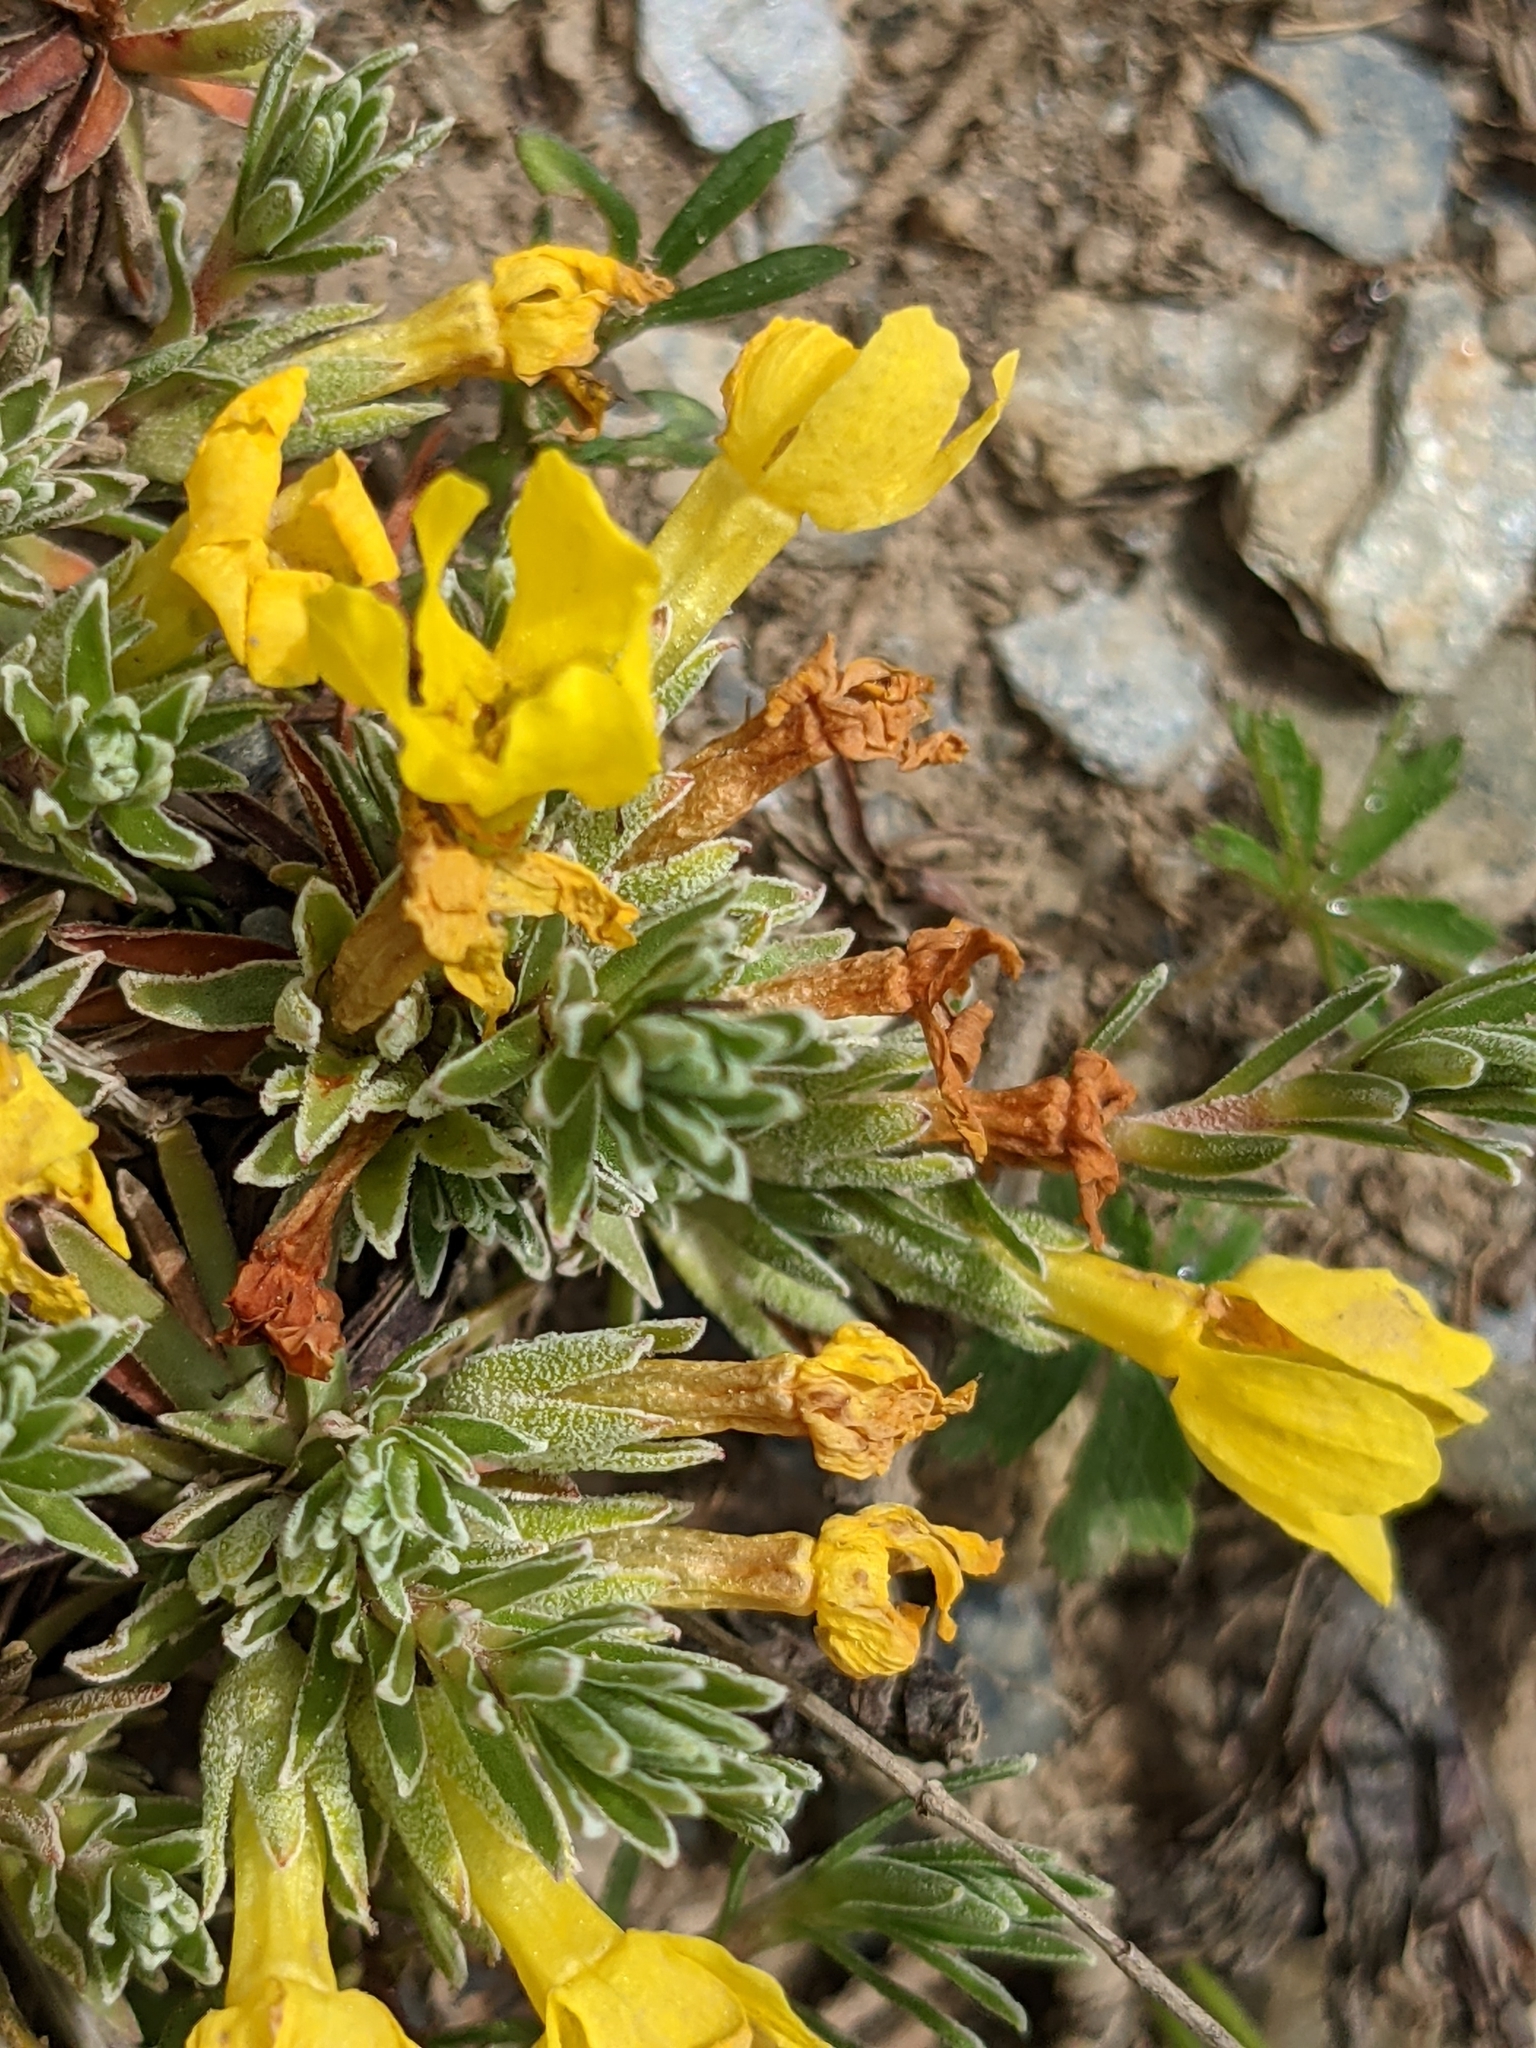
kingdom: Plantae
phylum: Tracheophyta
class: Magnoliopsida
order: Ericales
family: Primulaceae
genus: Androsace
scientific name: Androsace vitaliana
